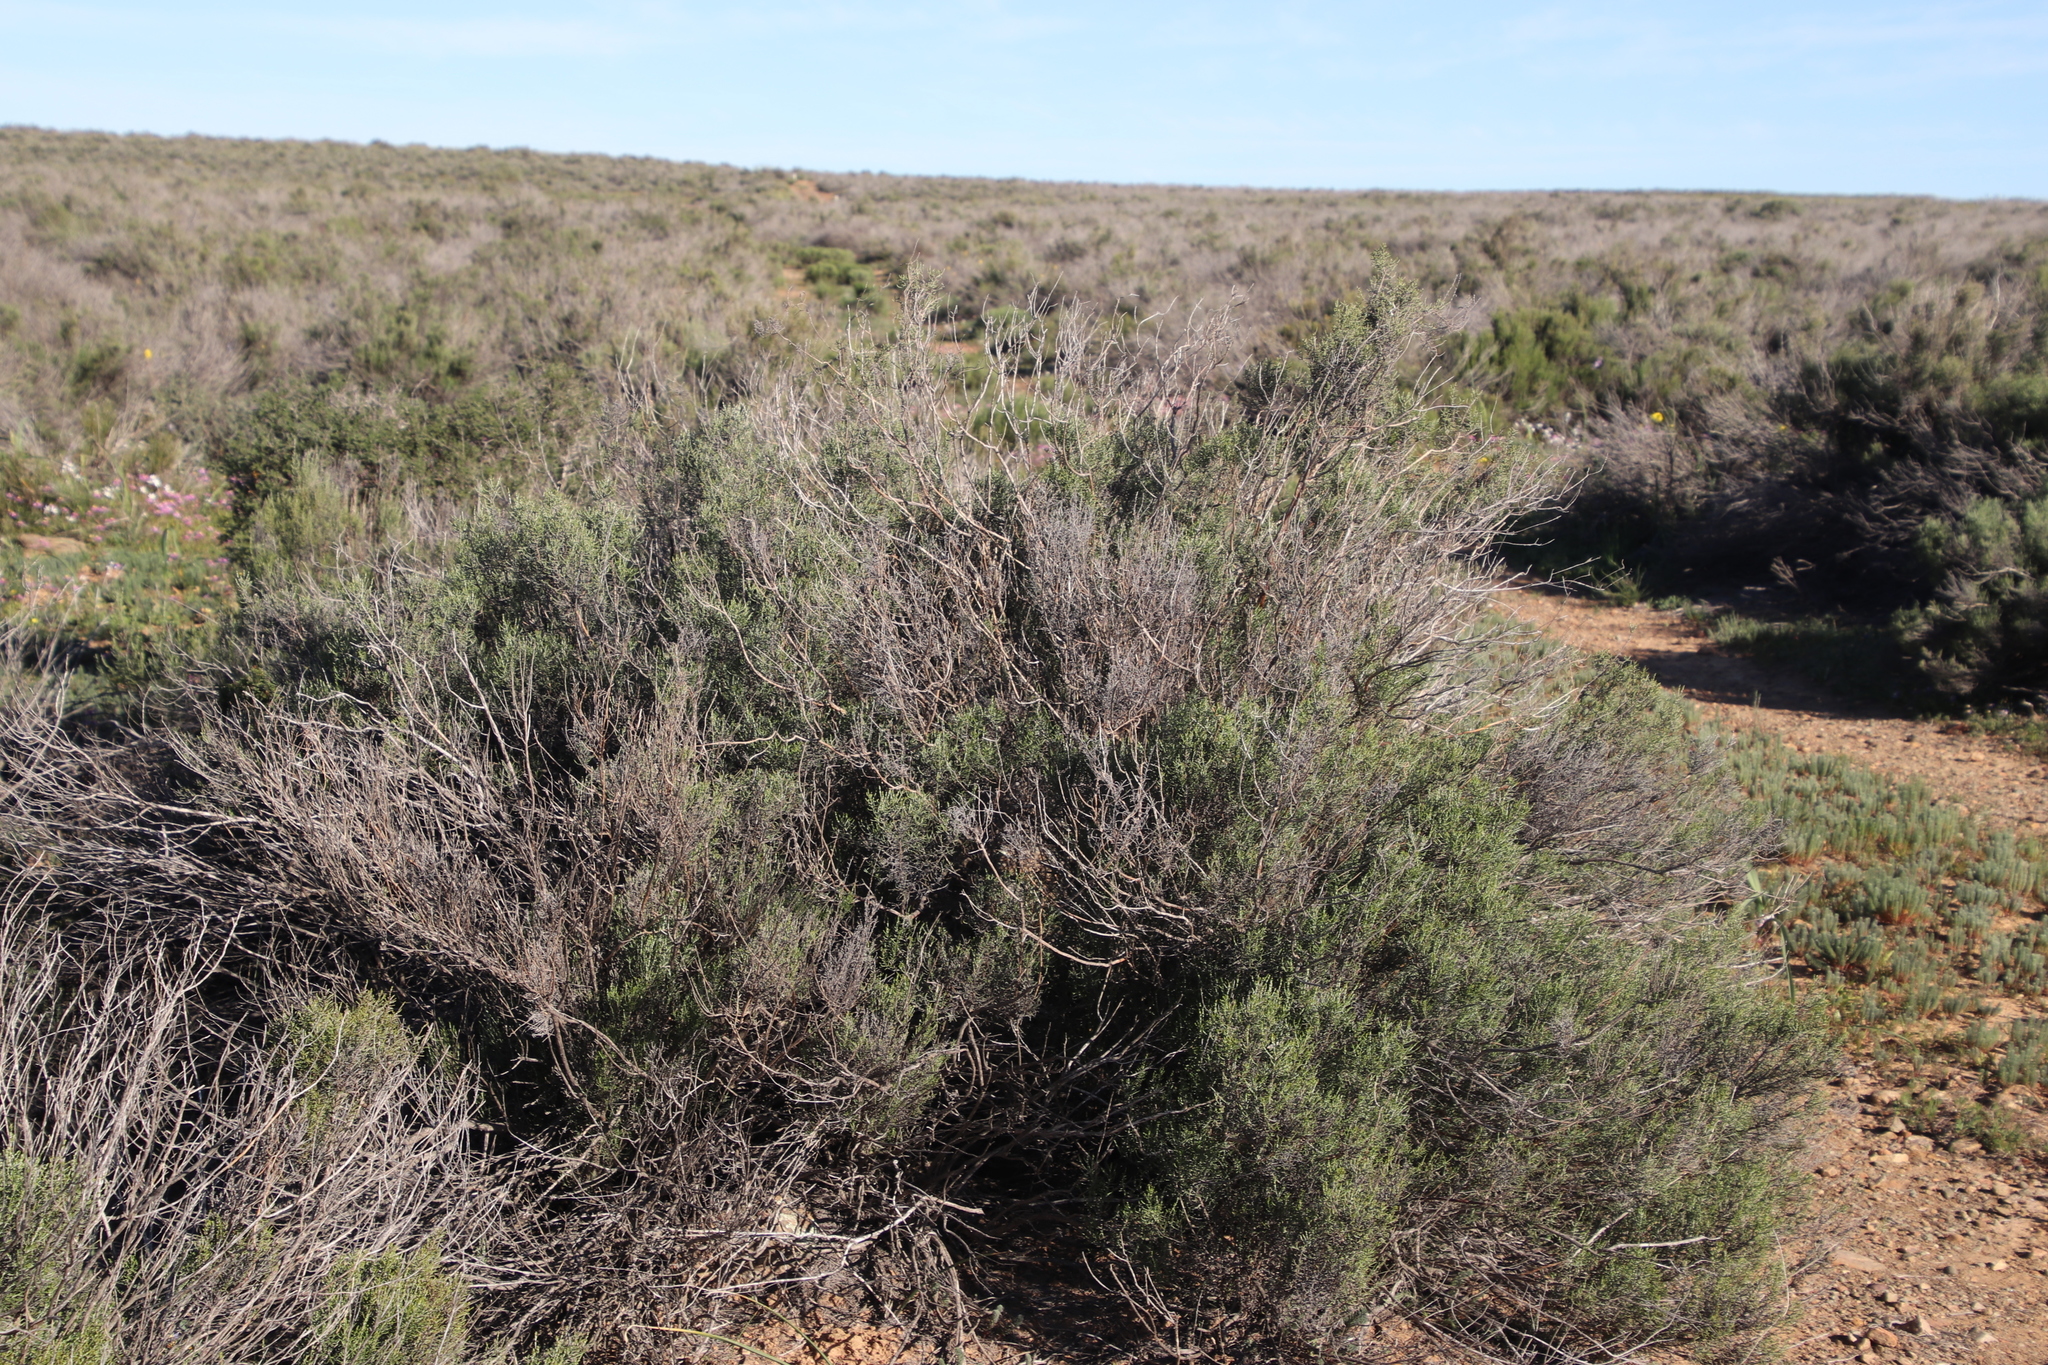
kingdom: Plantae
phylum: Tracheophyta
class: Magnoliopsida
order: Asterales
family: Asteraceae
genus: Dicerothamnus
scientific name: Dicerothamnus rhinocerotis
